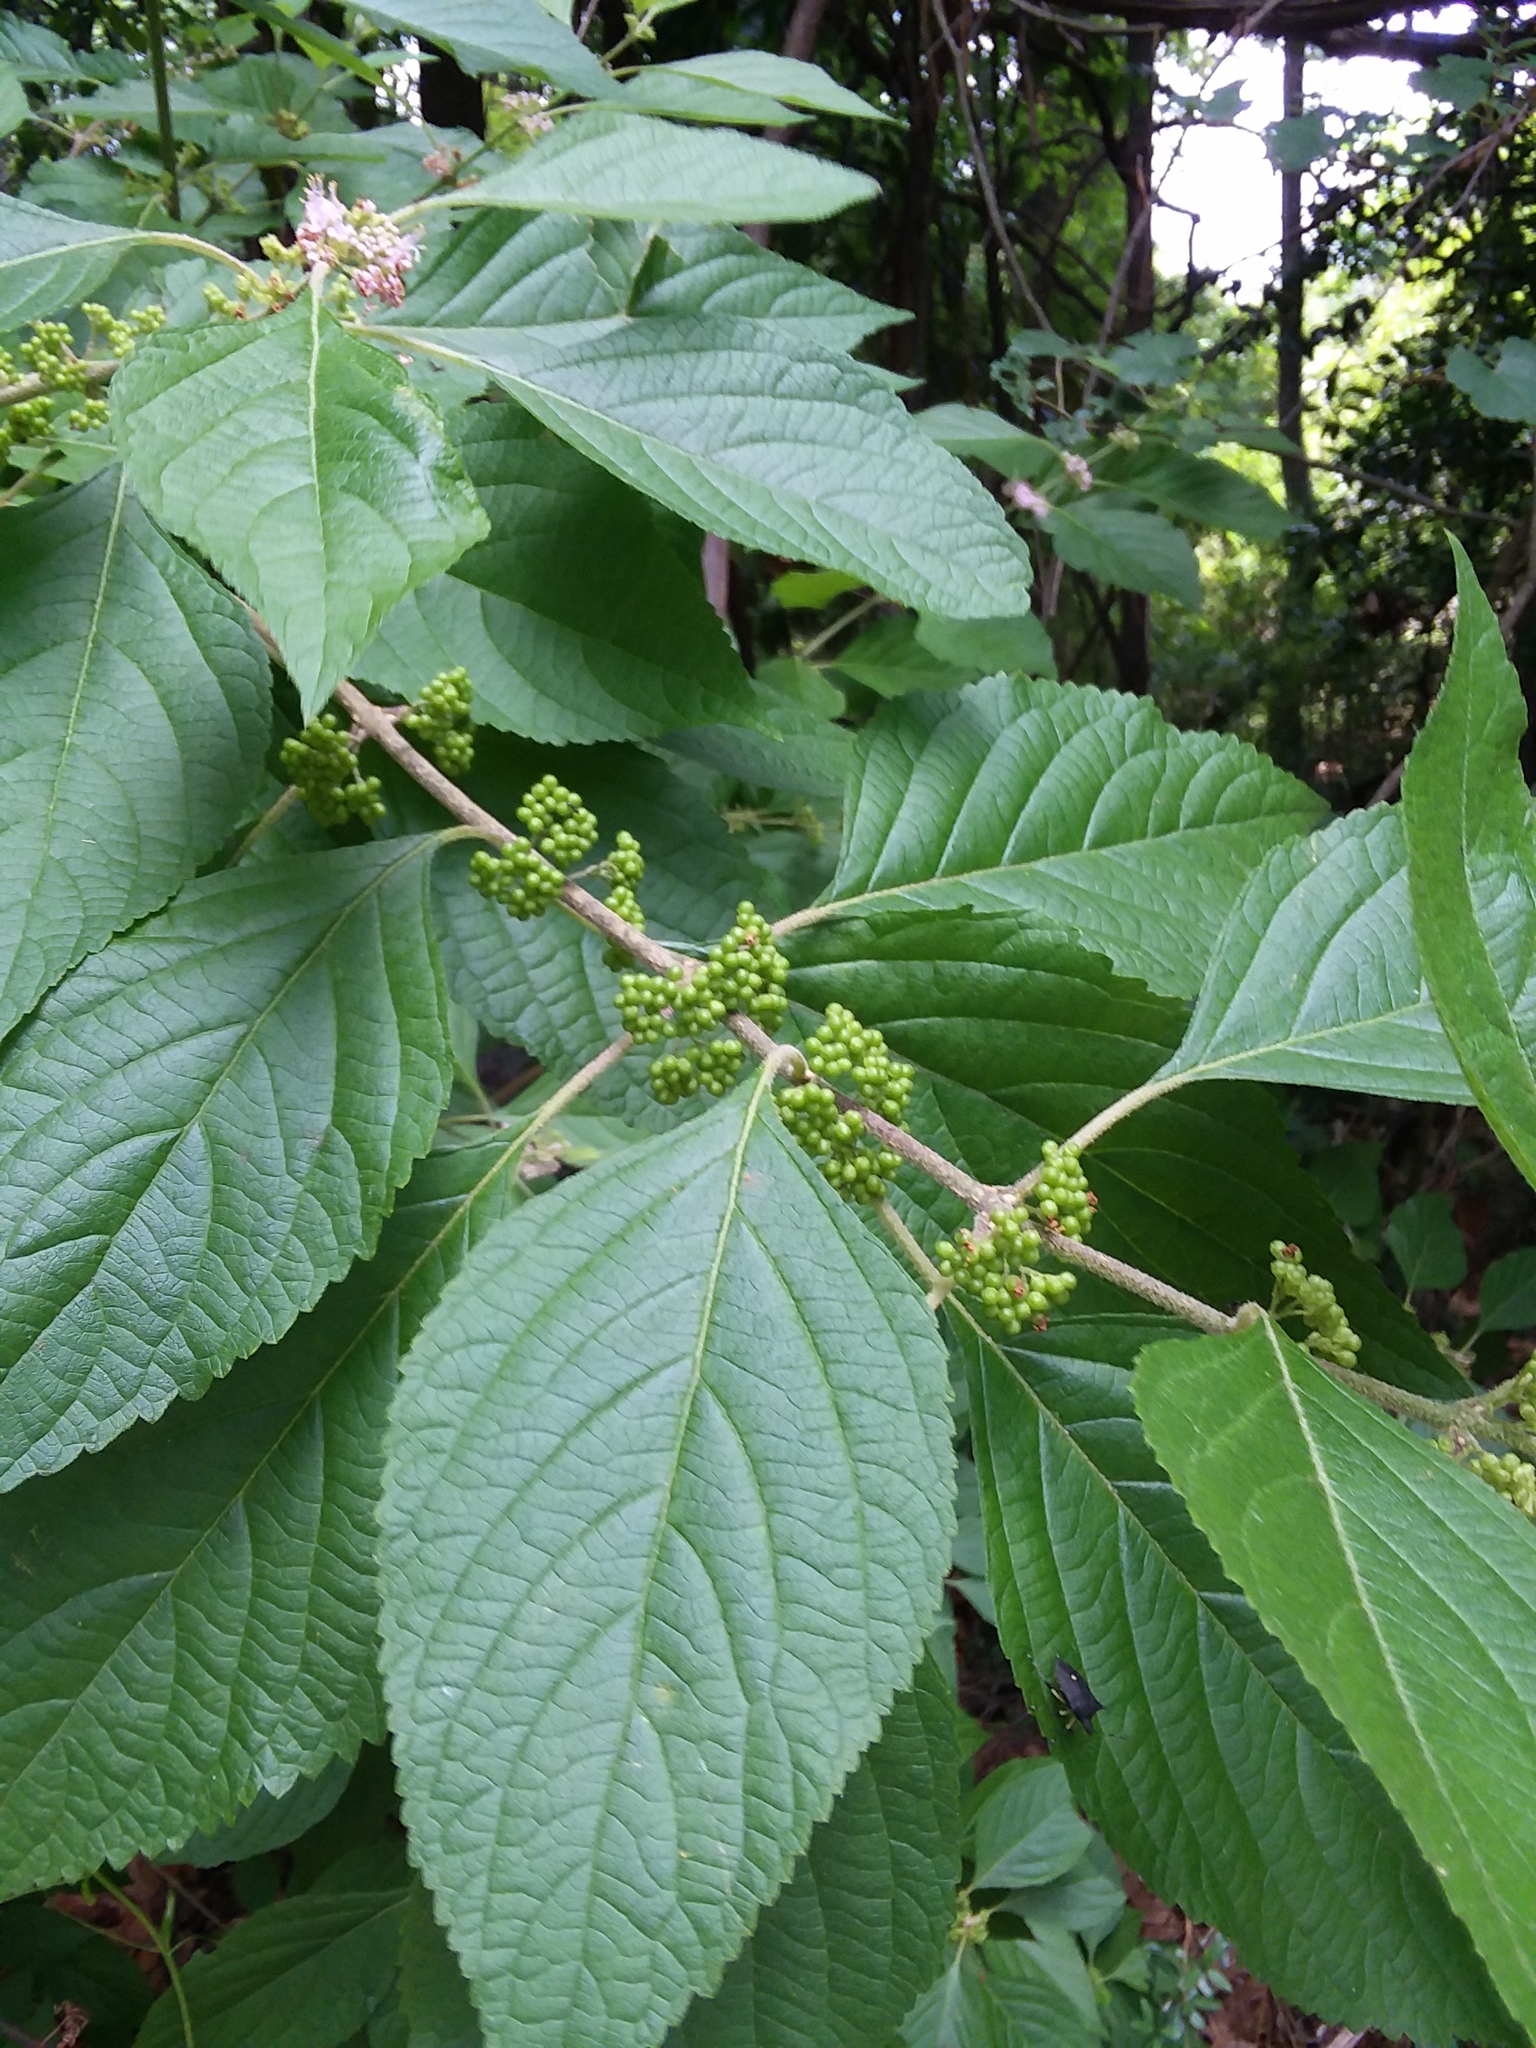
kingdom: Plantae
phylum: Tracheophyta
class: Magnoliopsida
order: Lamiales
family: Lamiaceae
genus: Callicarpa
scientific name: Callicarpa americana
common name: American beautyberry
